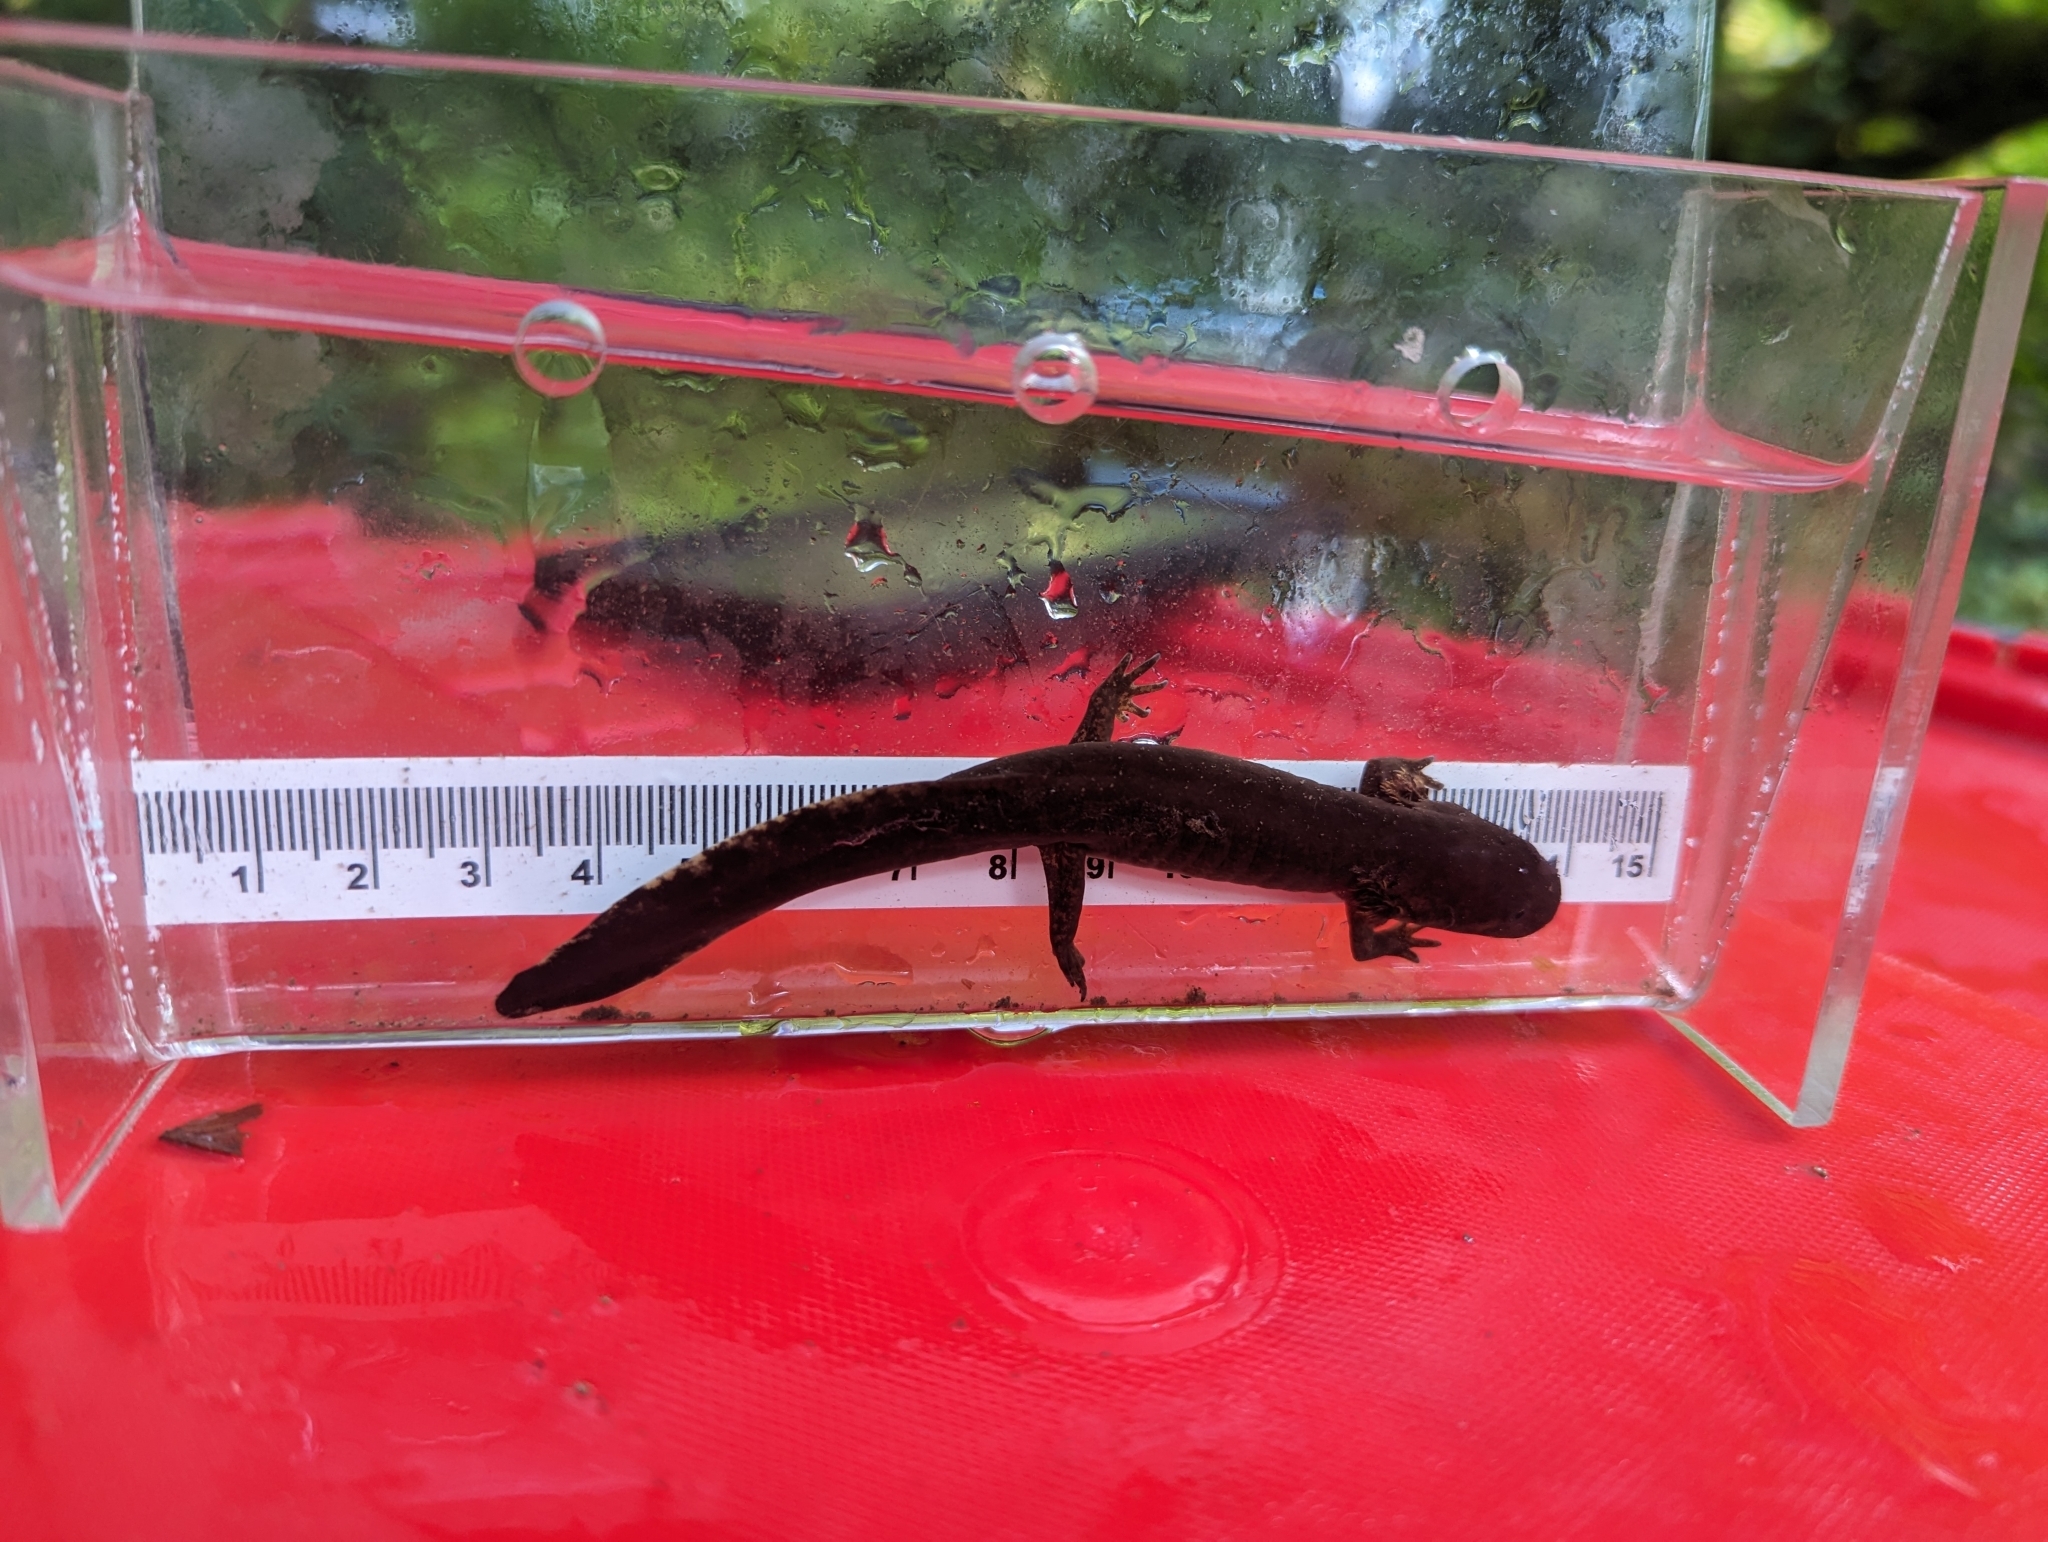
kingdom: Animalia
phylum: Chordata
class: Amphibia
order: Caudata
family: Ambystomatidae
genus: Dicamptodon
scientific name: Dicamptodon tenebrosus
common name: Coastal giant salamander
